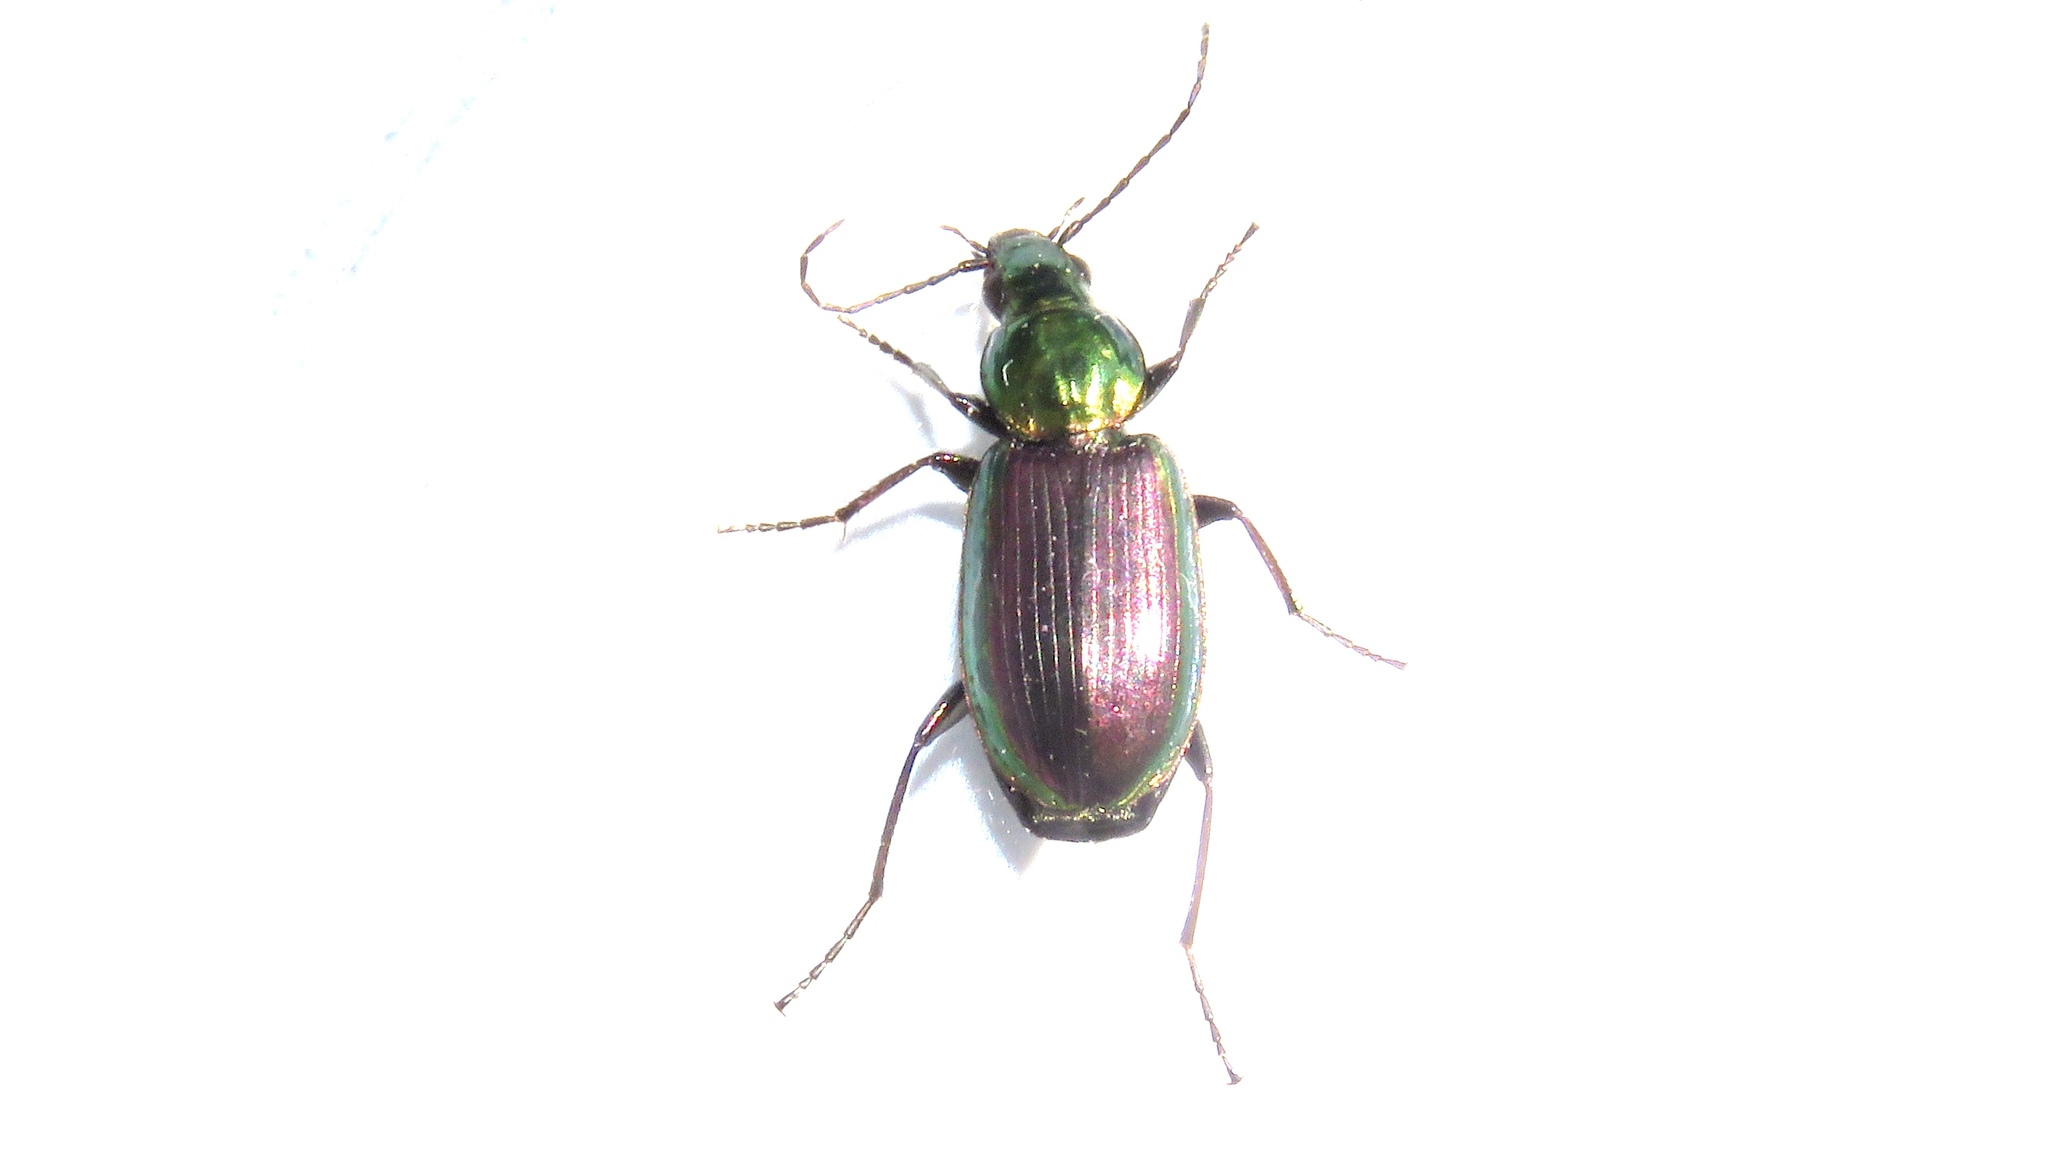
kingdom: Animalia
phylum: Arthropoda
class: Insecta
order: Coleoptera
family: Carabidae
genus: Agonum
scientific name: Agonum cupripenne
